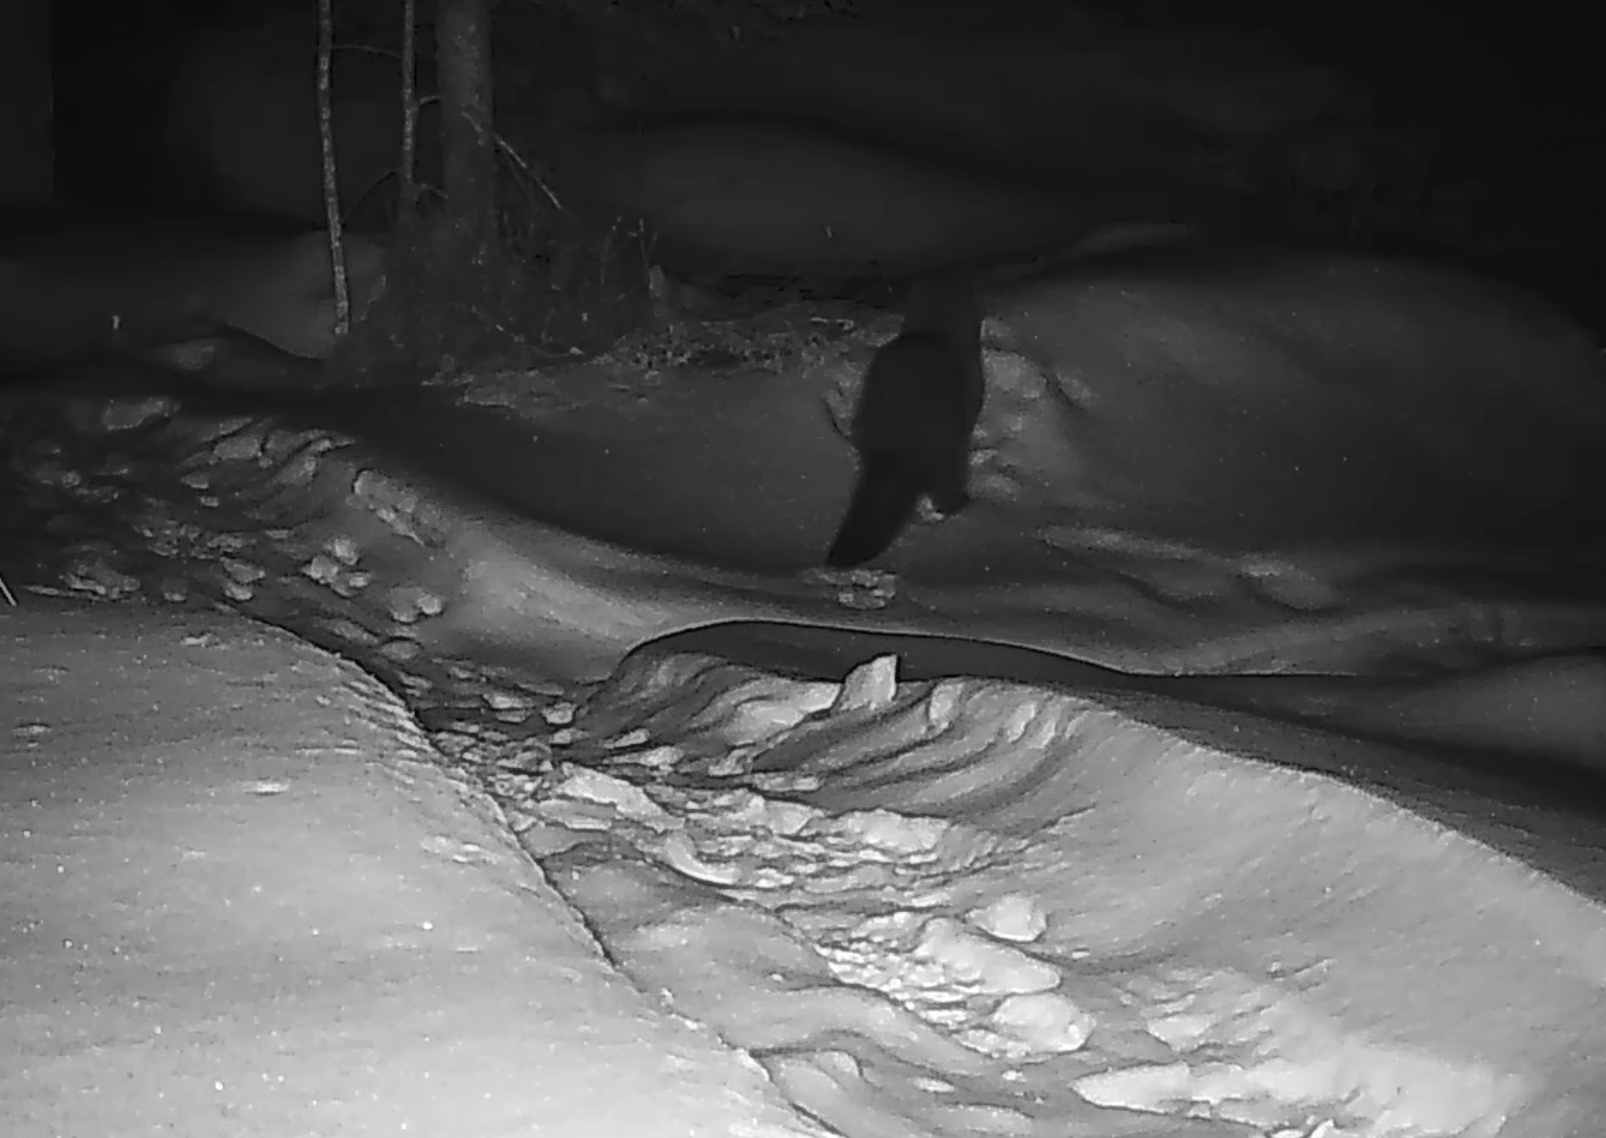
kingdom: Animalia
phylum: Chordata
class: Mammalia
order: Carnivora
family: Mustelidae
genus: Pekania
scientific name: Pekania pennanti
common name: Fisher
